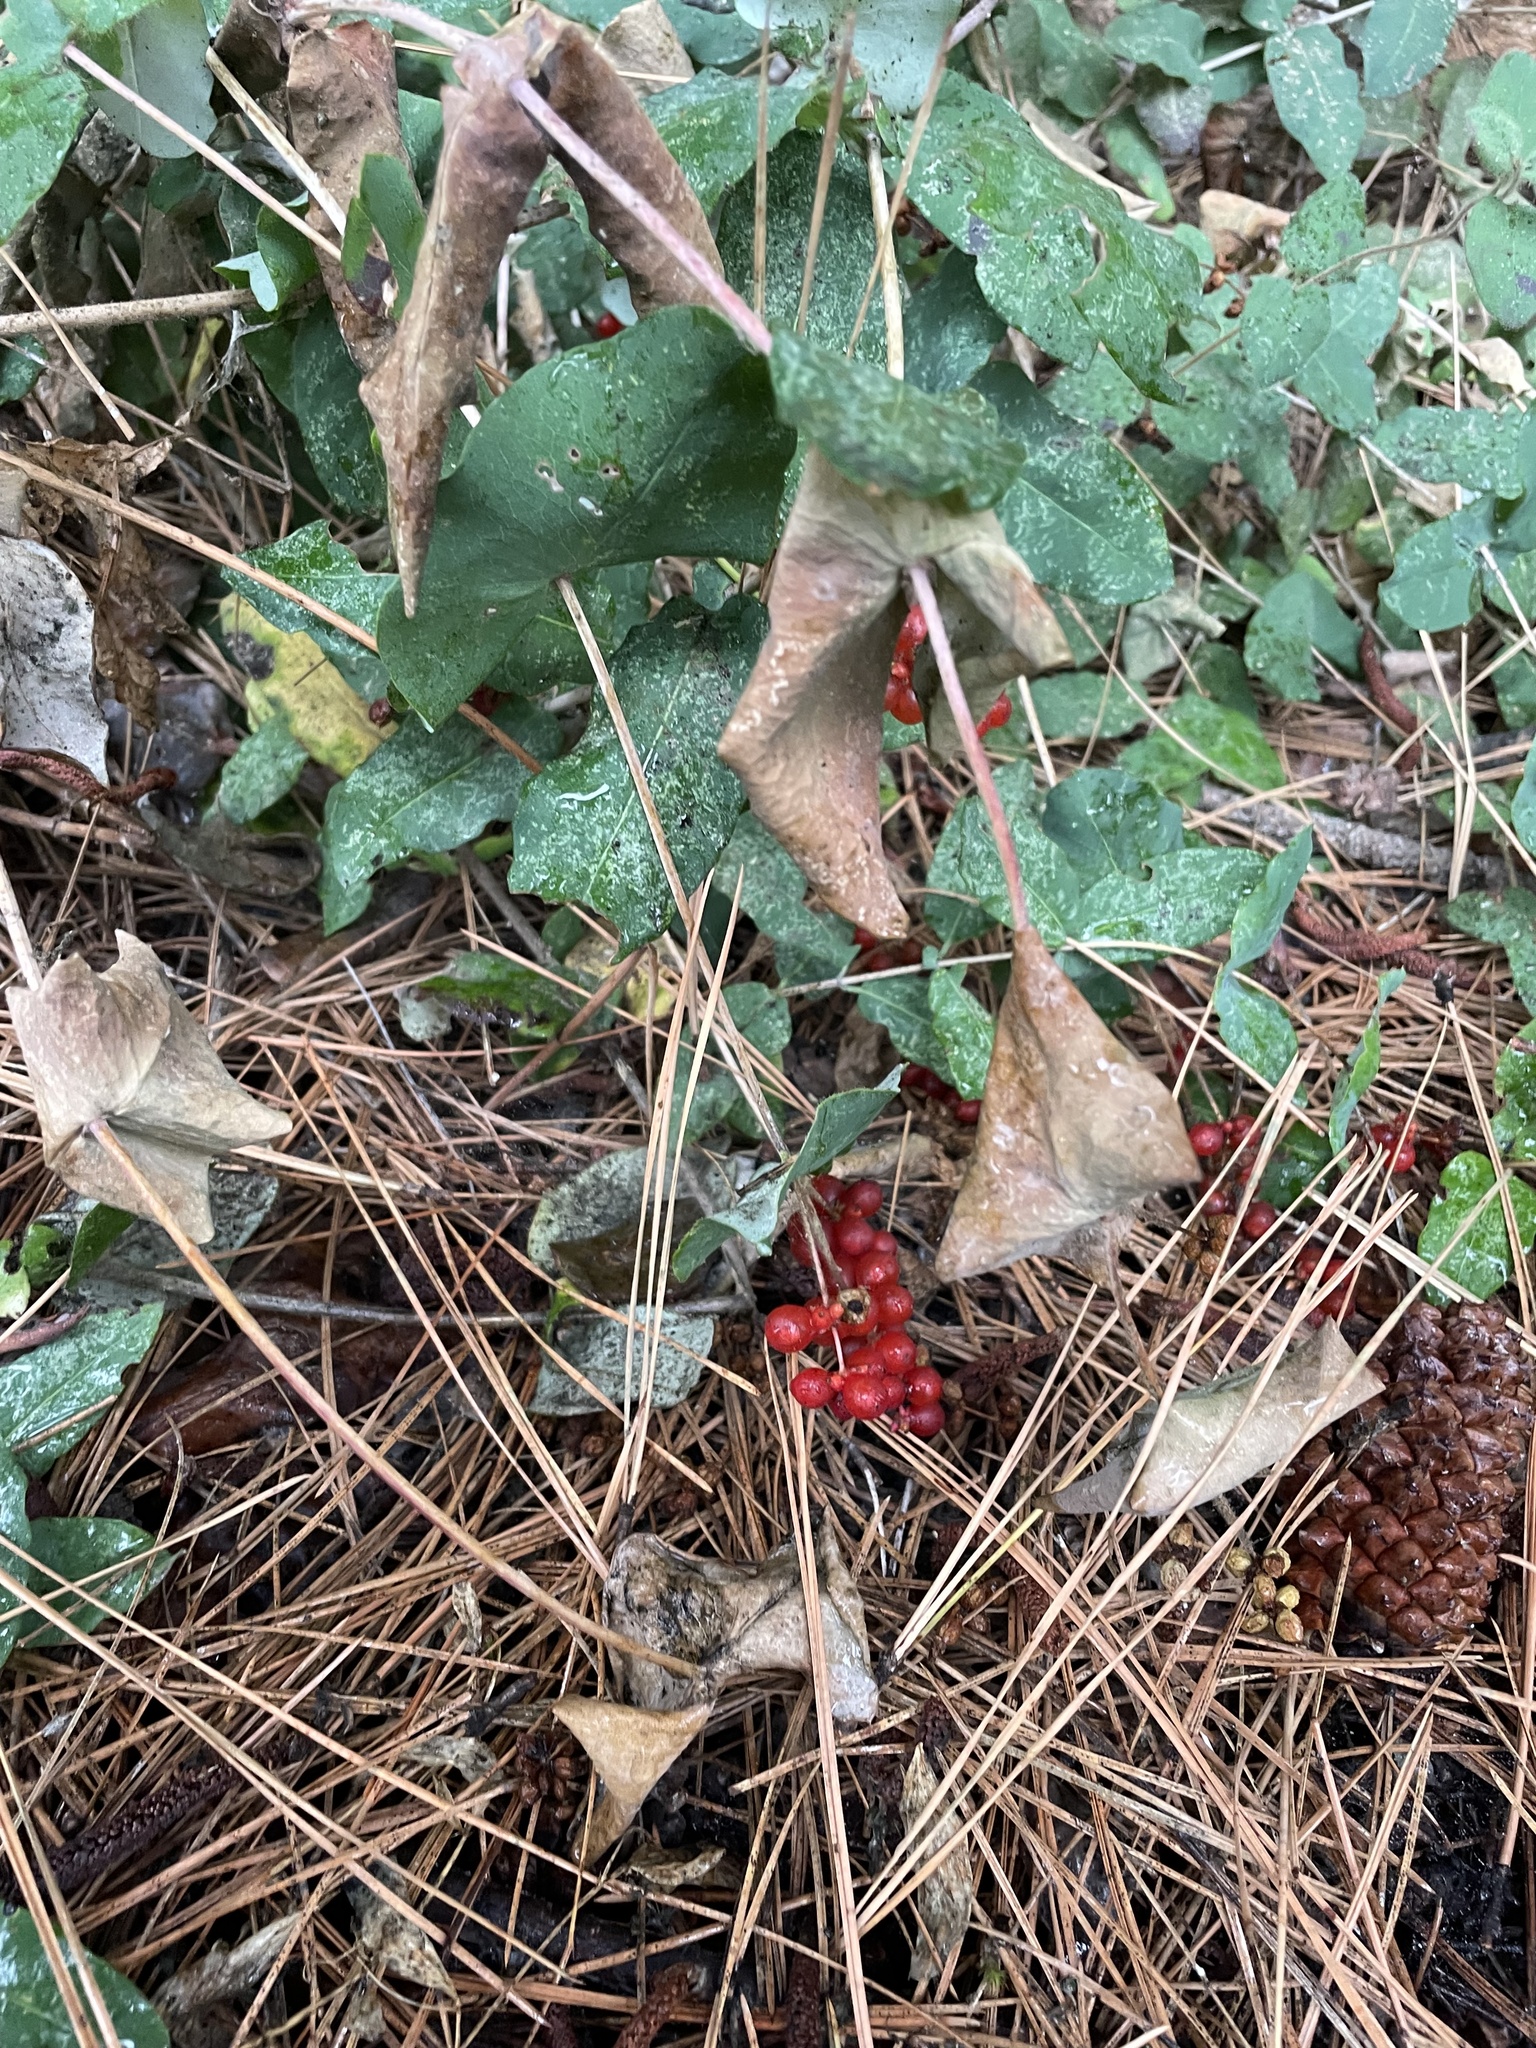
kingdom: Plantae
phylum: Tracheophyta
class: Magnoliopsida
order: Dipsacales
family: Caprifoliaceae
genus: Lonicera
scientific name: Lonicera hispidula
